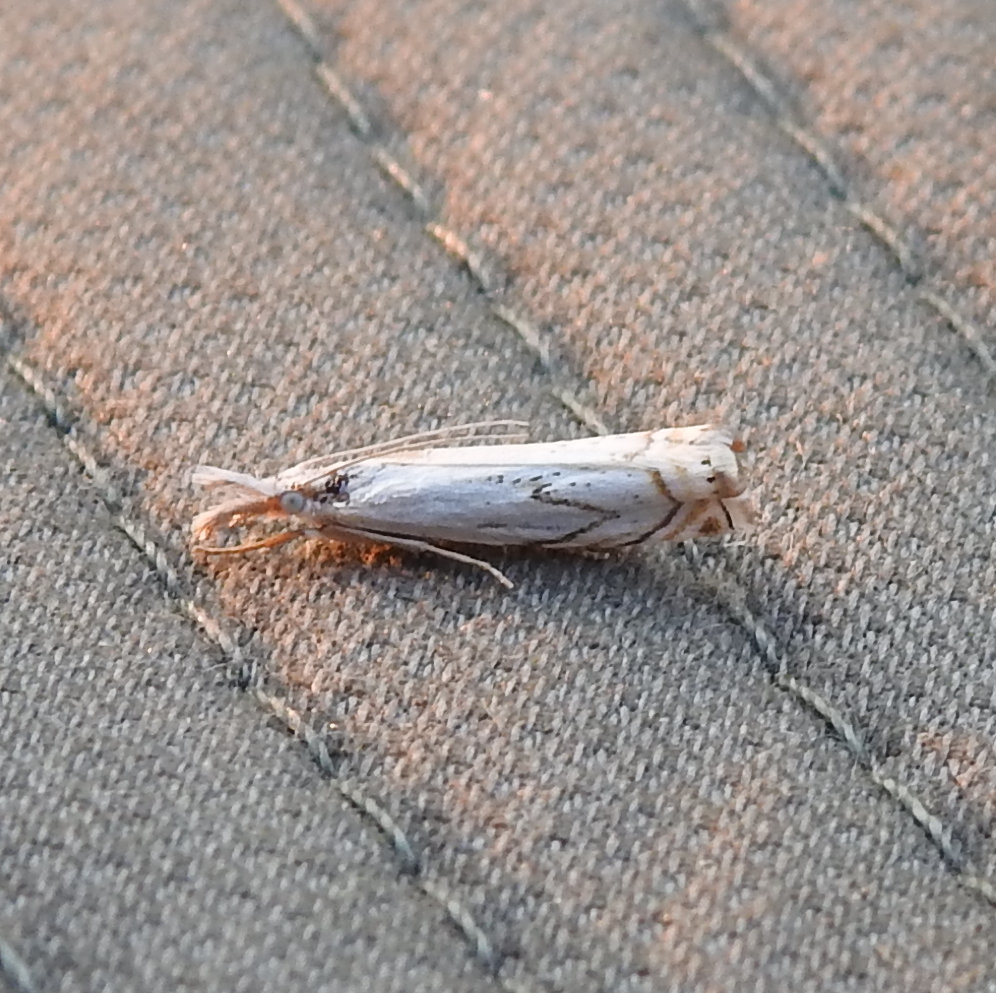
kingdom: Animalia
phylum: Arthropoda
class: Insecta
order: Lepidoptera
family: Crambidae
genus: Crambus
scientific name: Crambus albellus
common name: Small white grass-veneer
